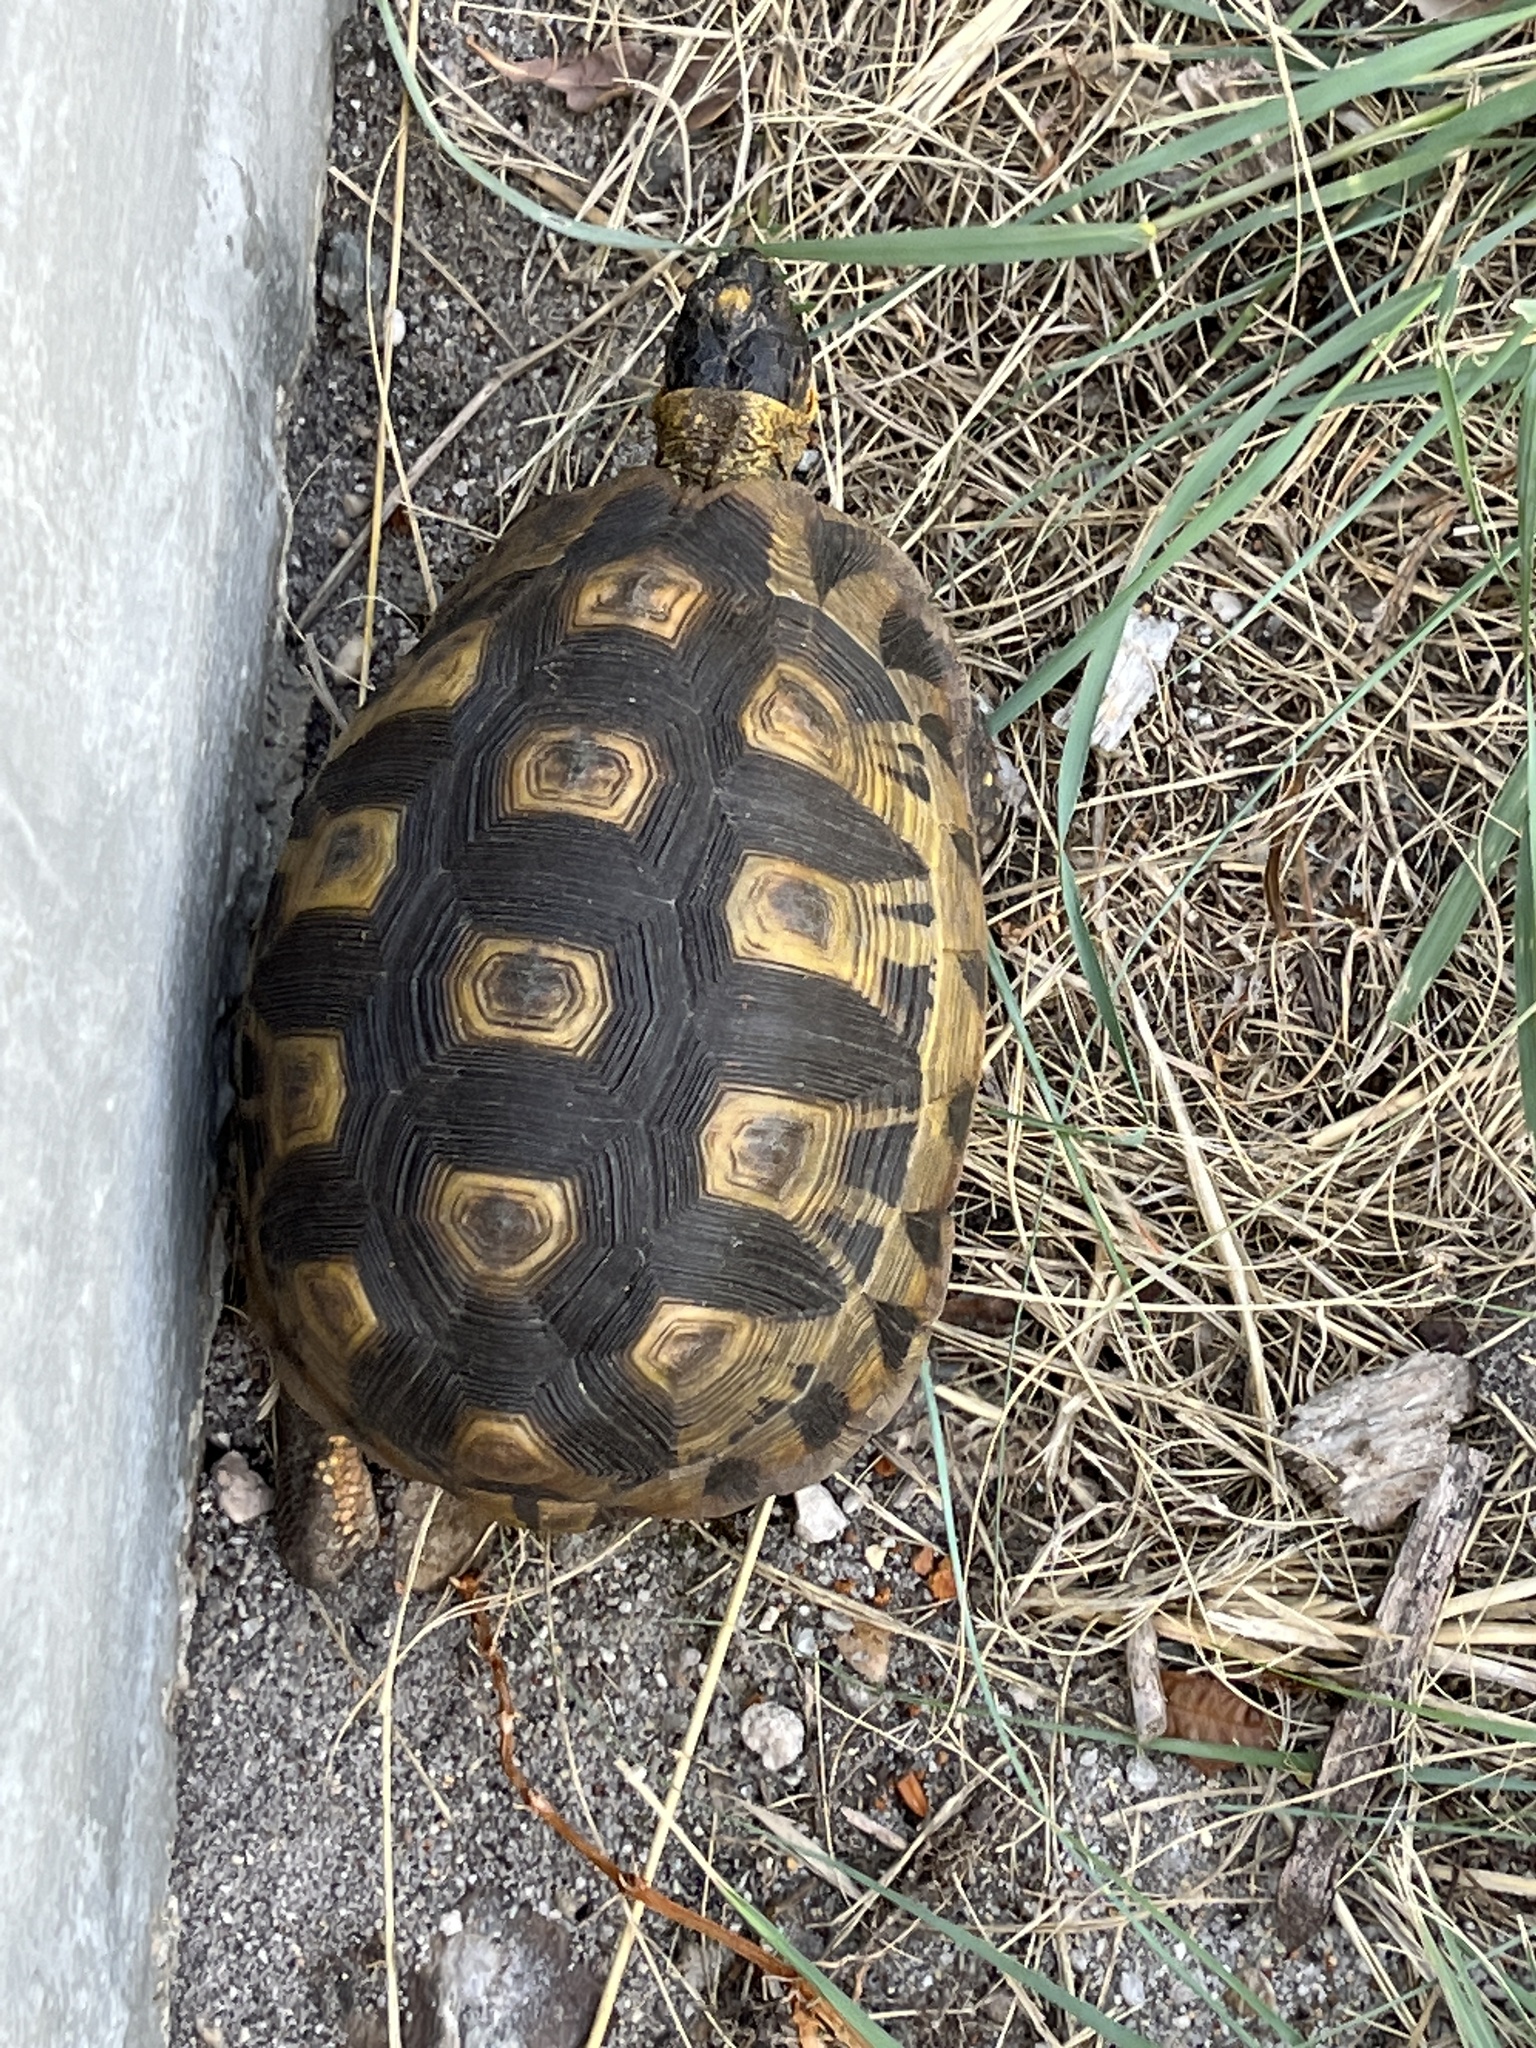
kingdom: Animalia
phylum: Chordata
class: Testudines
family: Testudinidae
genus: Chersina
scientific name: Chersina angulata
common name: South african bowsprit tortoise
